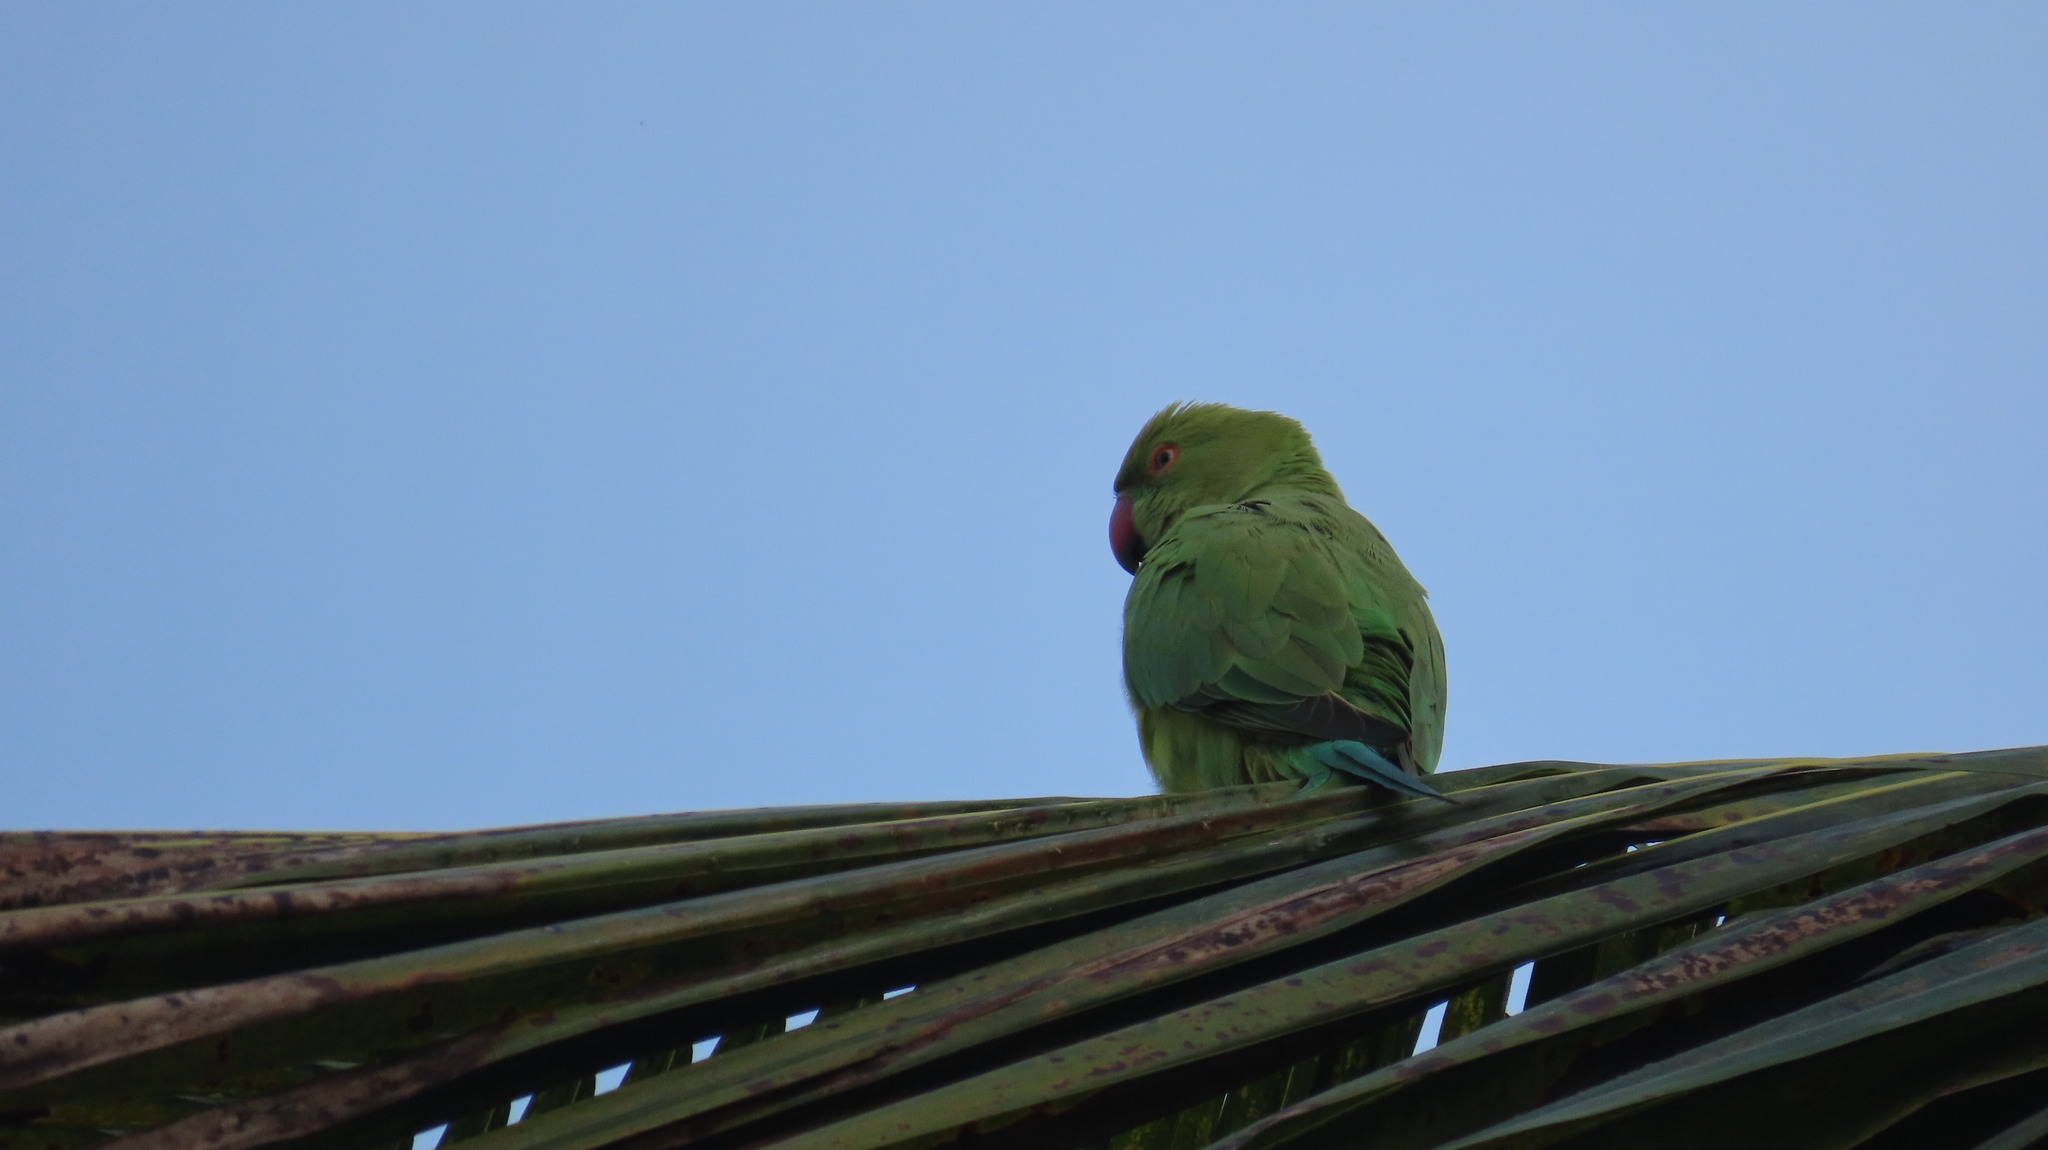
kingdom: Animalia
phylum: Chordata
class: Aves
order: Psittaciformes
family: Psittacidae
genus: Psittacula
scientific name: Psittacula krameri
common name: Rose-ringed parakeet
